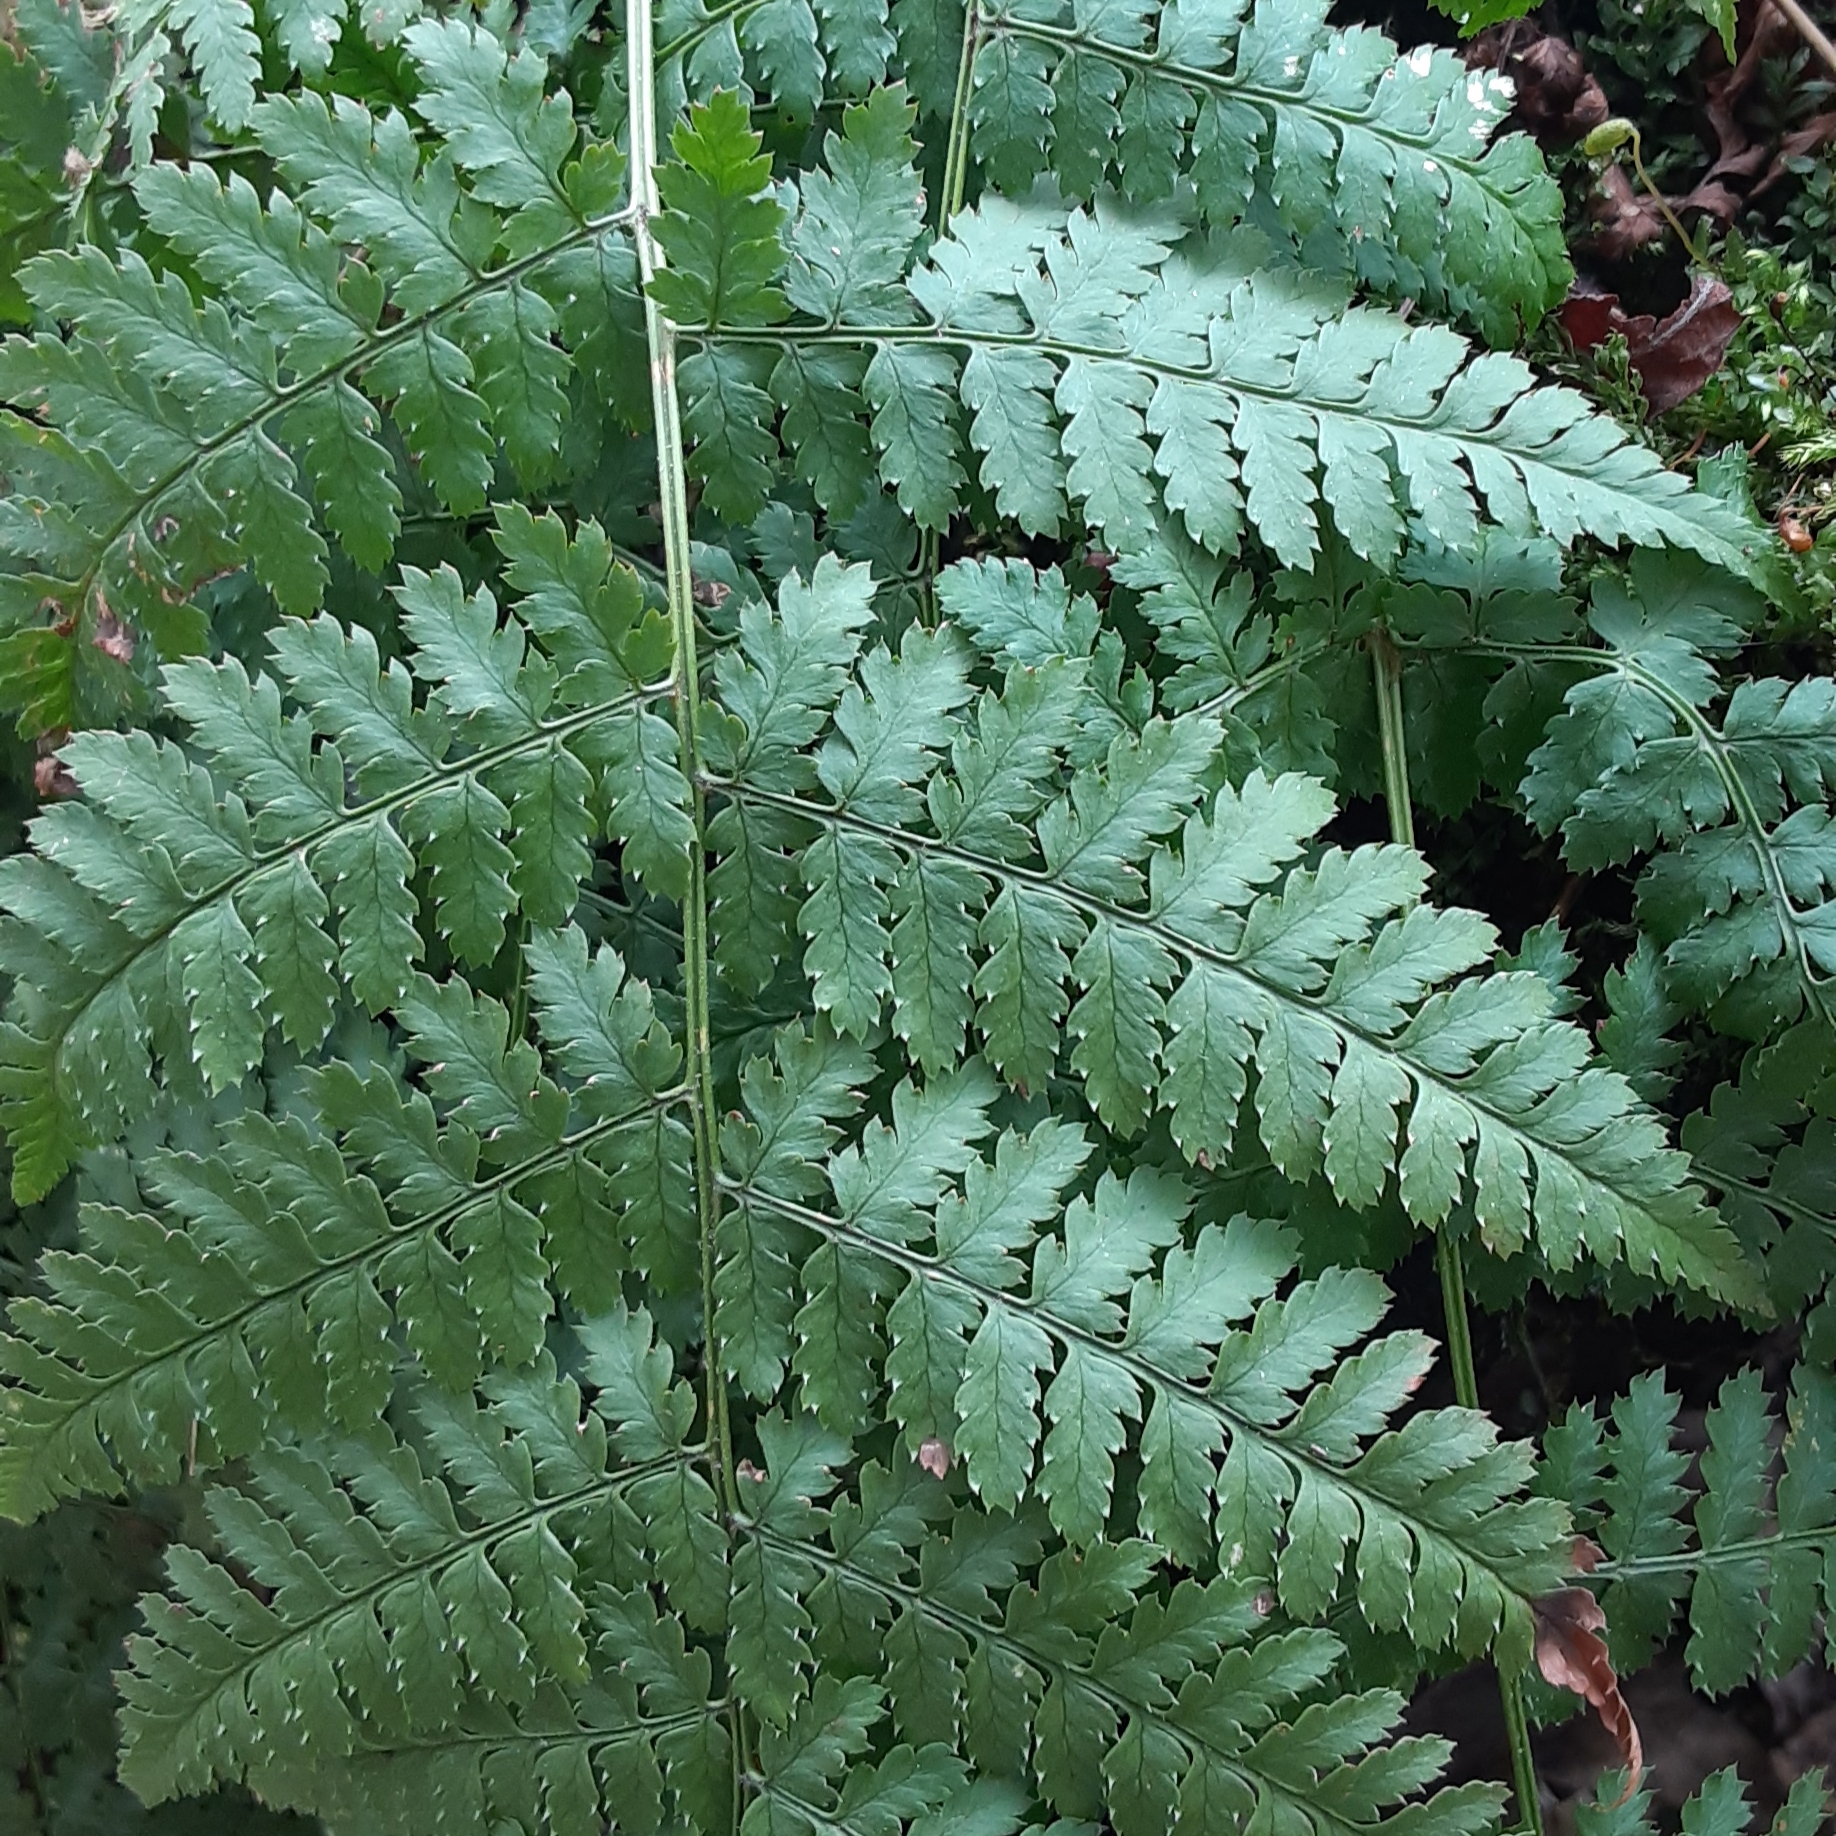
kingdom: Plantae
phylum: Tracheophyta
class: Polypodiopsida
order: Polypodiales
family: Dryopteridaceae
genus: Dryopteris
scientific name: Dryopteris intermedia
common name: Evergreen wood fern
